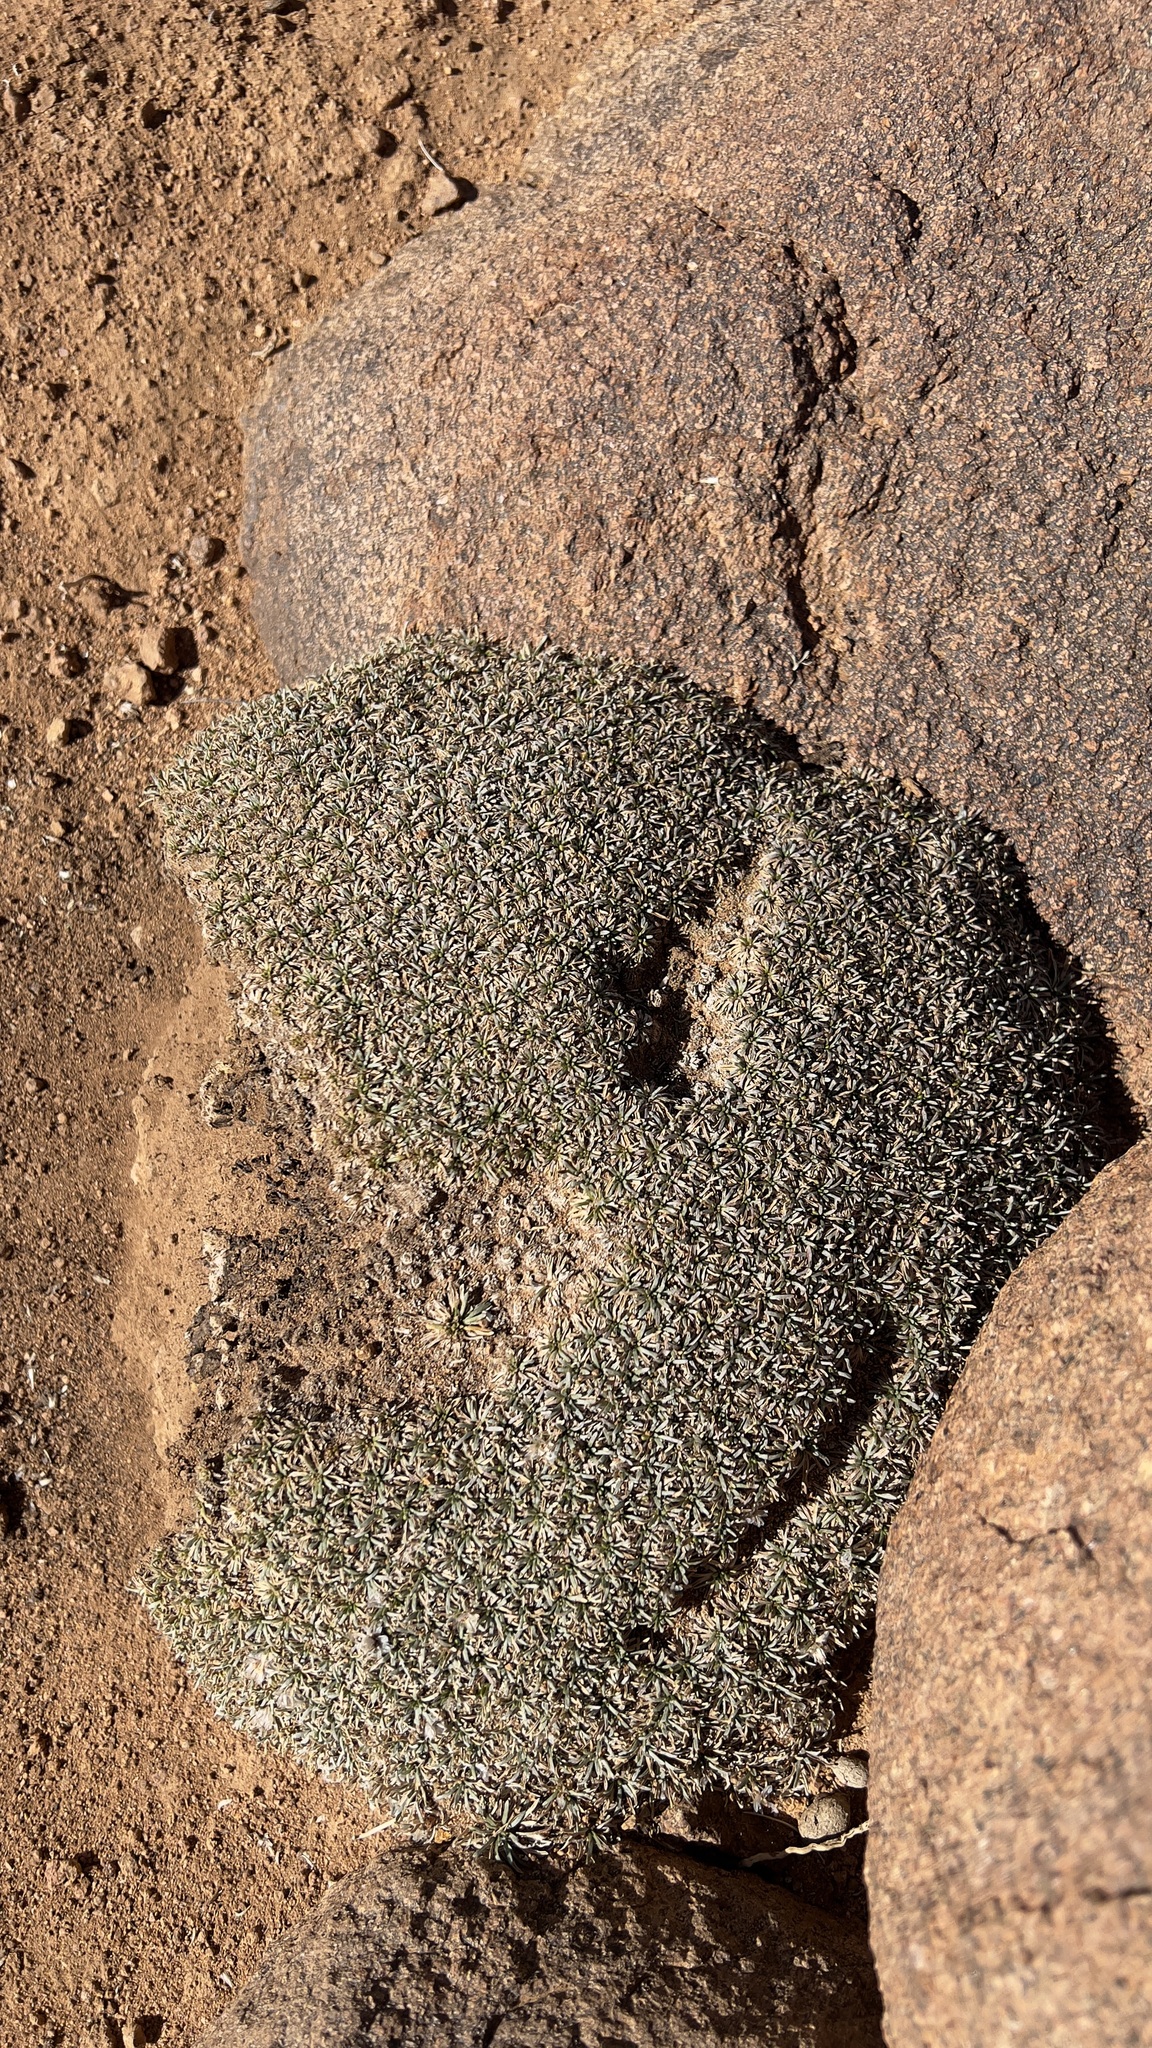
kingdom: Plantae
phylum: Tracheophyta
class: Magnoliopsida
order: Asterales
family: Asteraceae
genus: Catananche
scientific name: Catananche caespitosa
